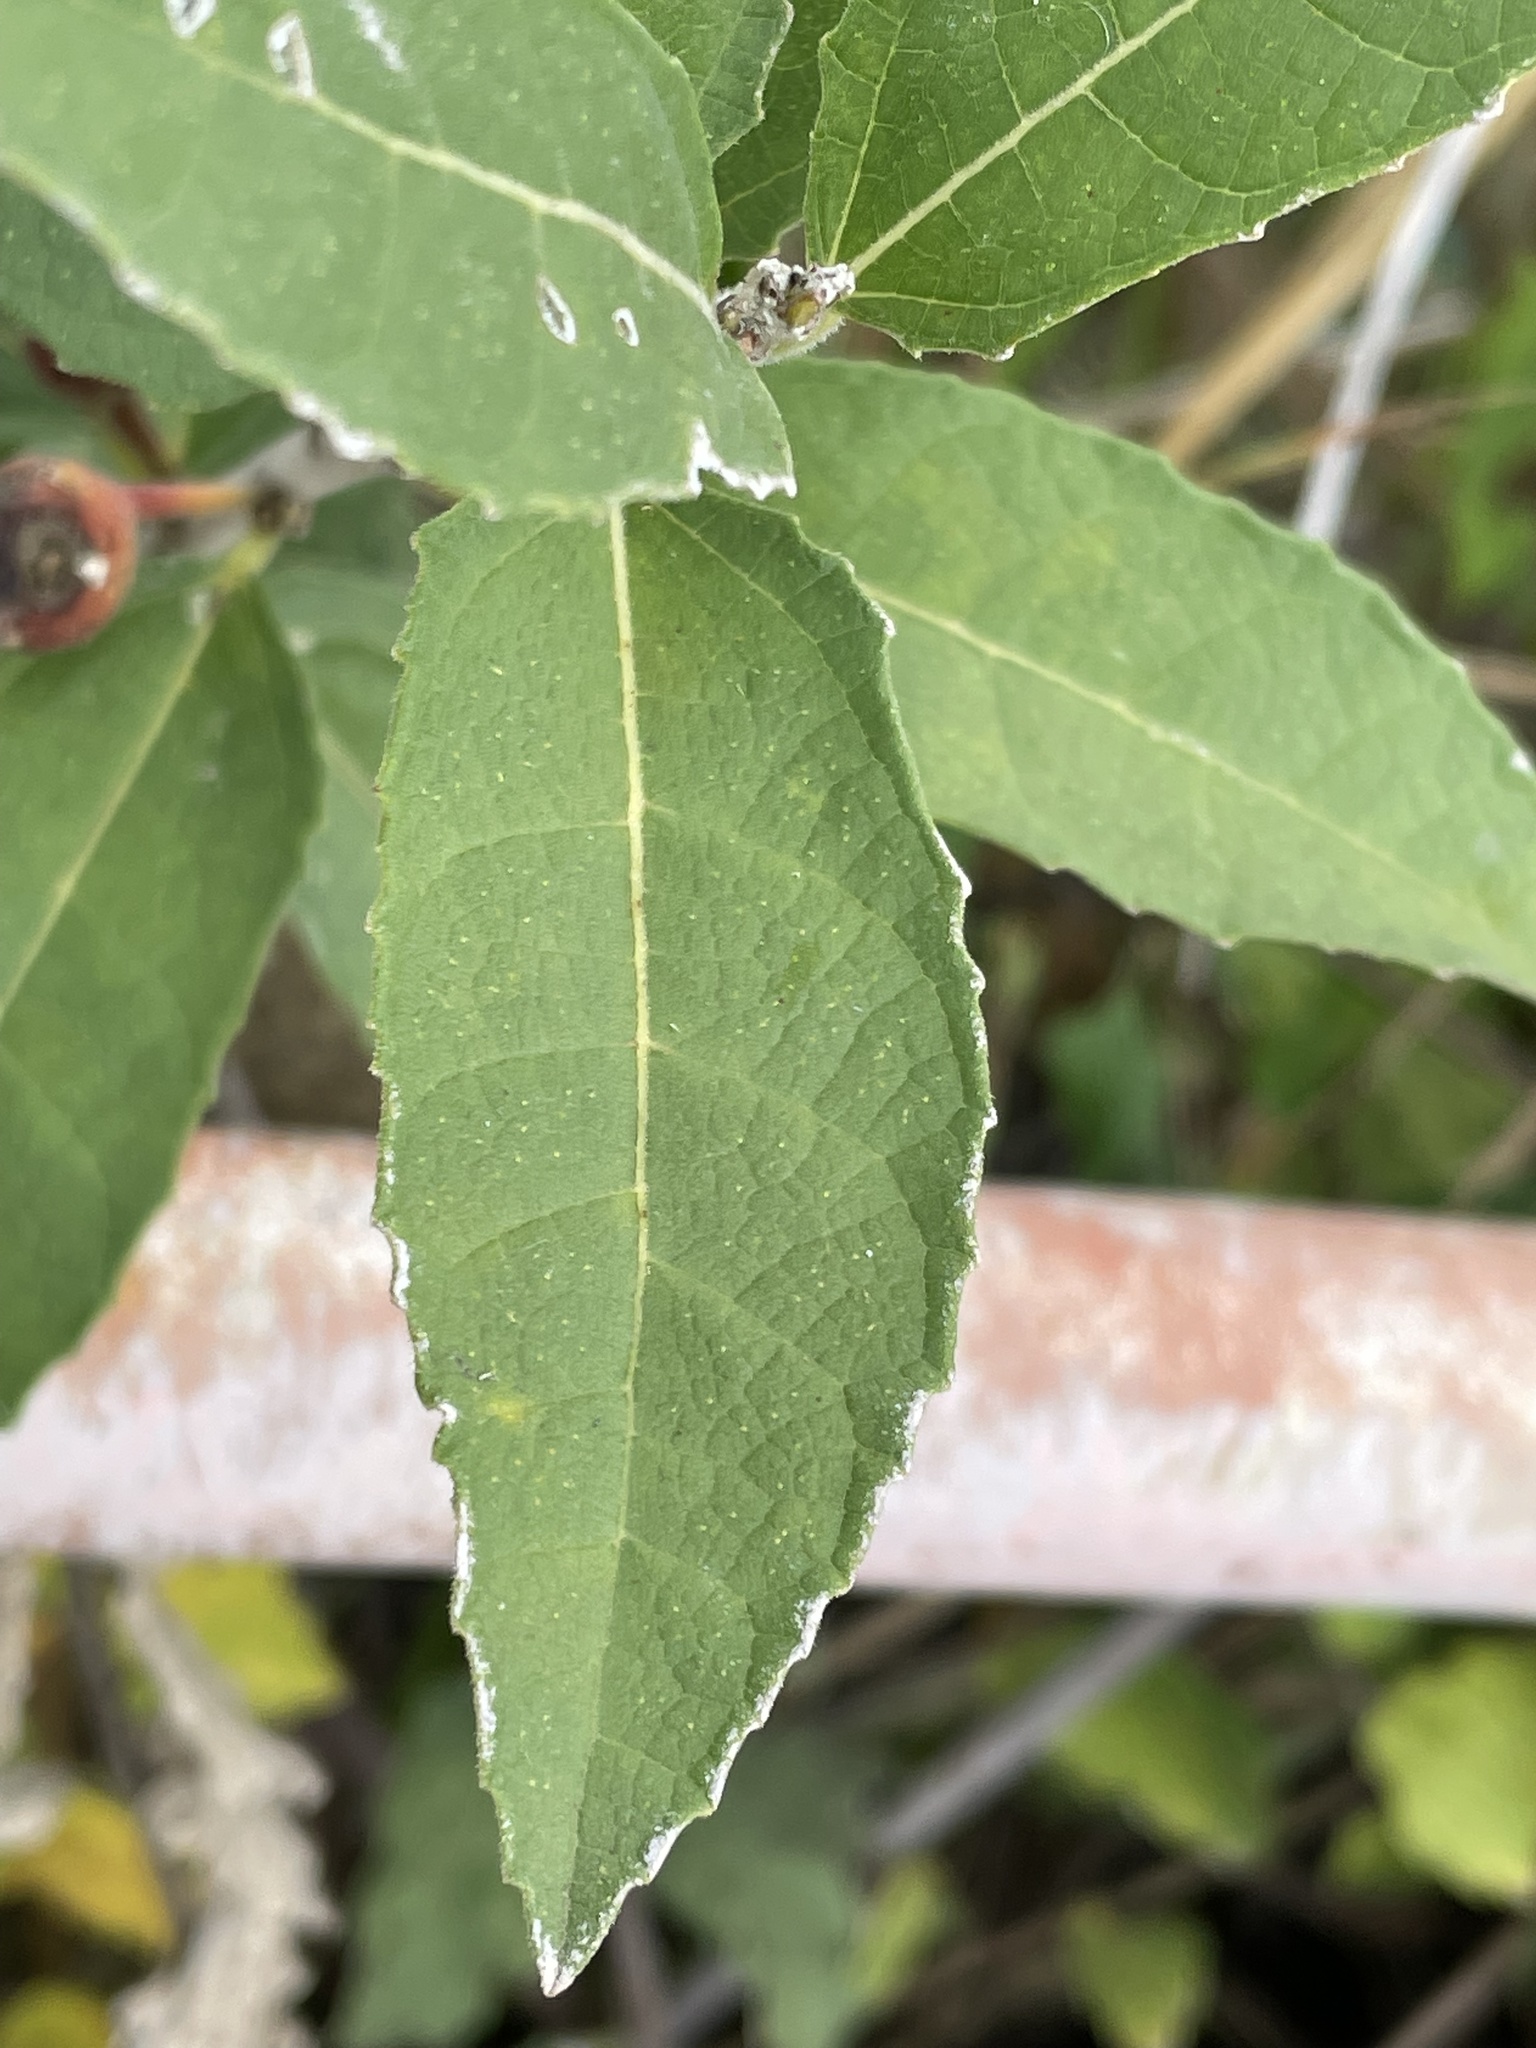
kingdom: Plantae
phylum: Tracheophyta
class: Magnoliopsida
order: Rosales
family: Moraceae
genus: Ficus
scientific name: Ficus pygmaea
